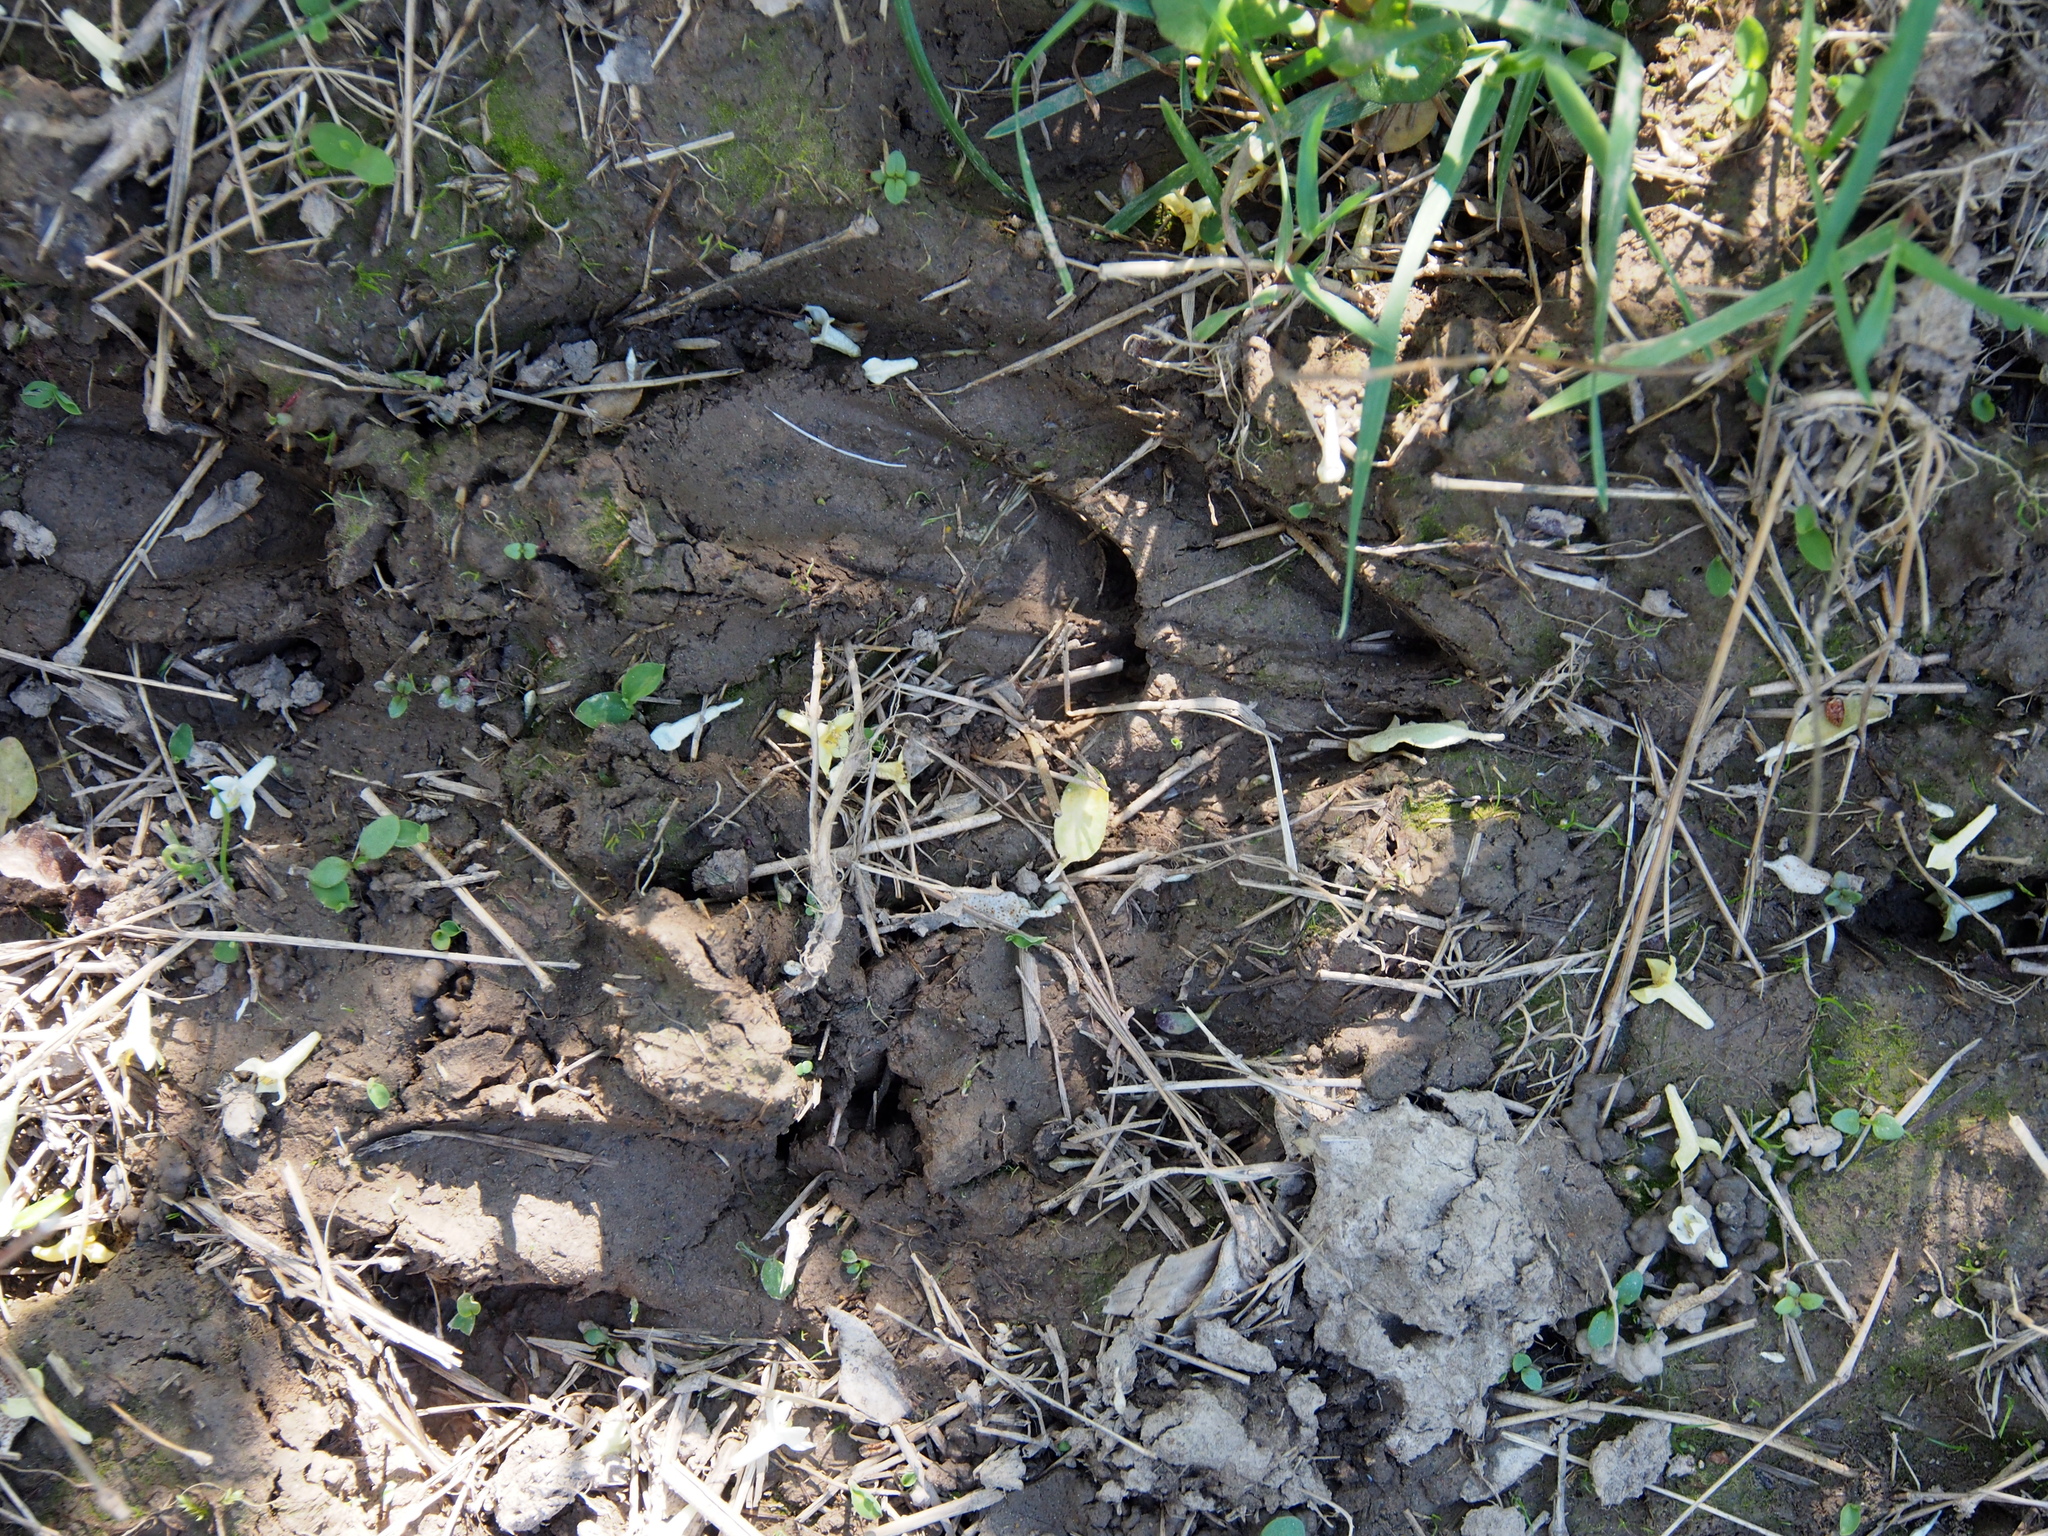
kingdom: Animalia
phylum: Chordata
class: Mammalia
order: Artiodactyla
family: Cervidae
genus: Odocoileus
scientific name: Odocoileus virginianus
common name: White-tailed deer
